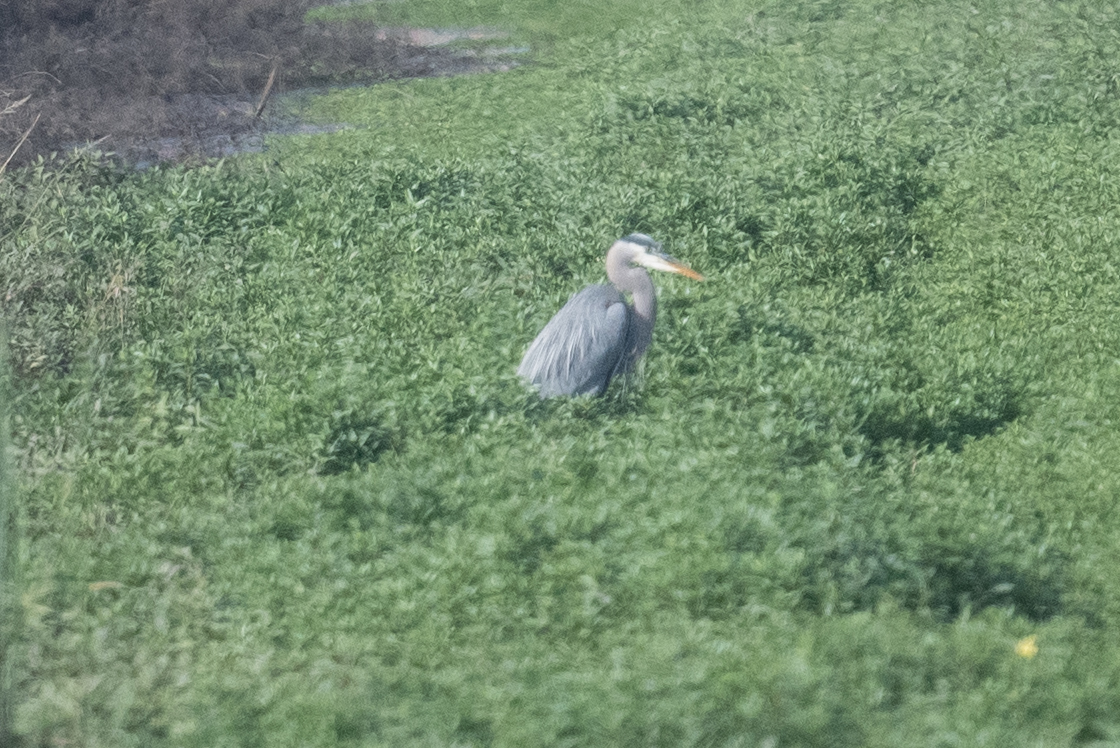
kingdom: Animalia
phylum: Chordata
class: Aves
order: Pelecaniformes
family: Ardeidae
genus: Ardea
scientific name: Ardea herodias
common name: Great blue heron
